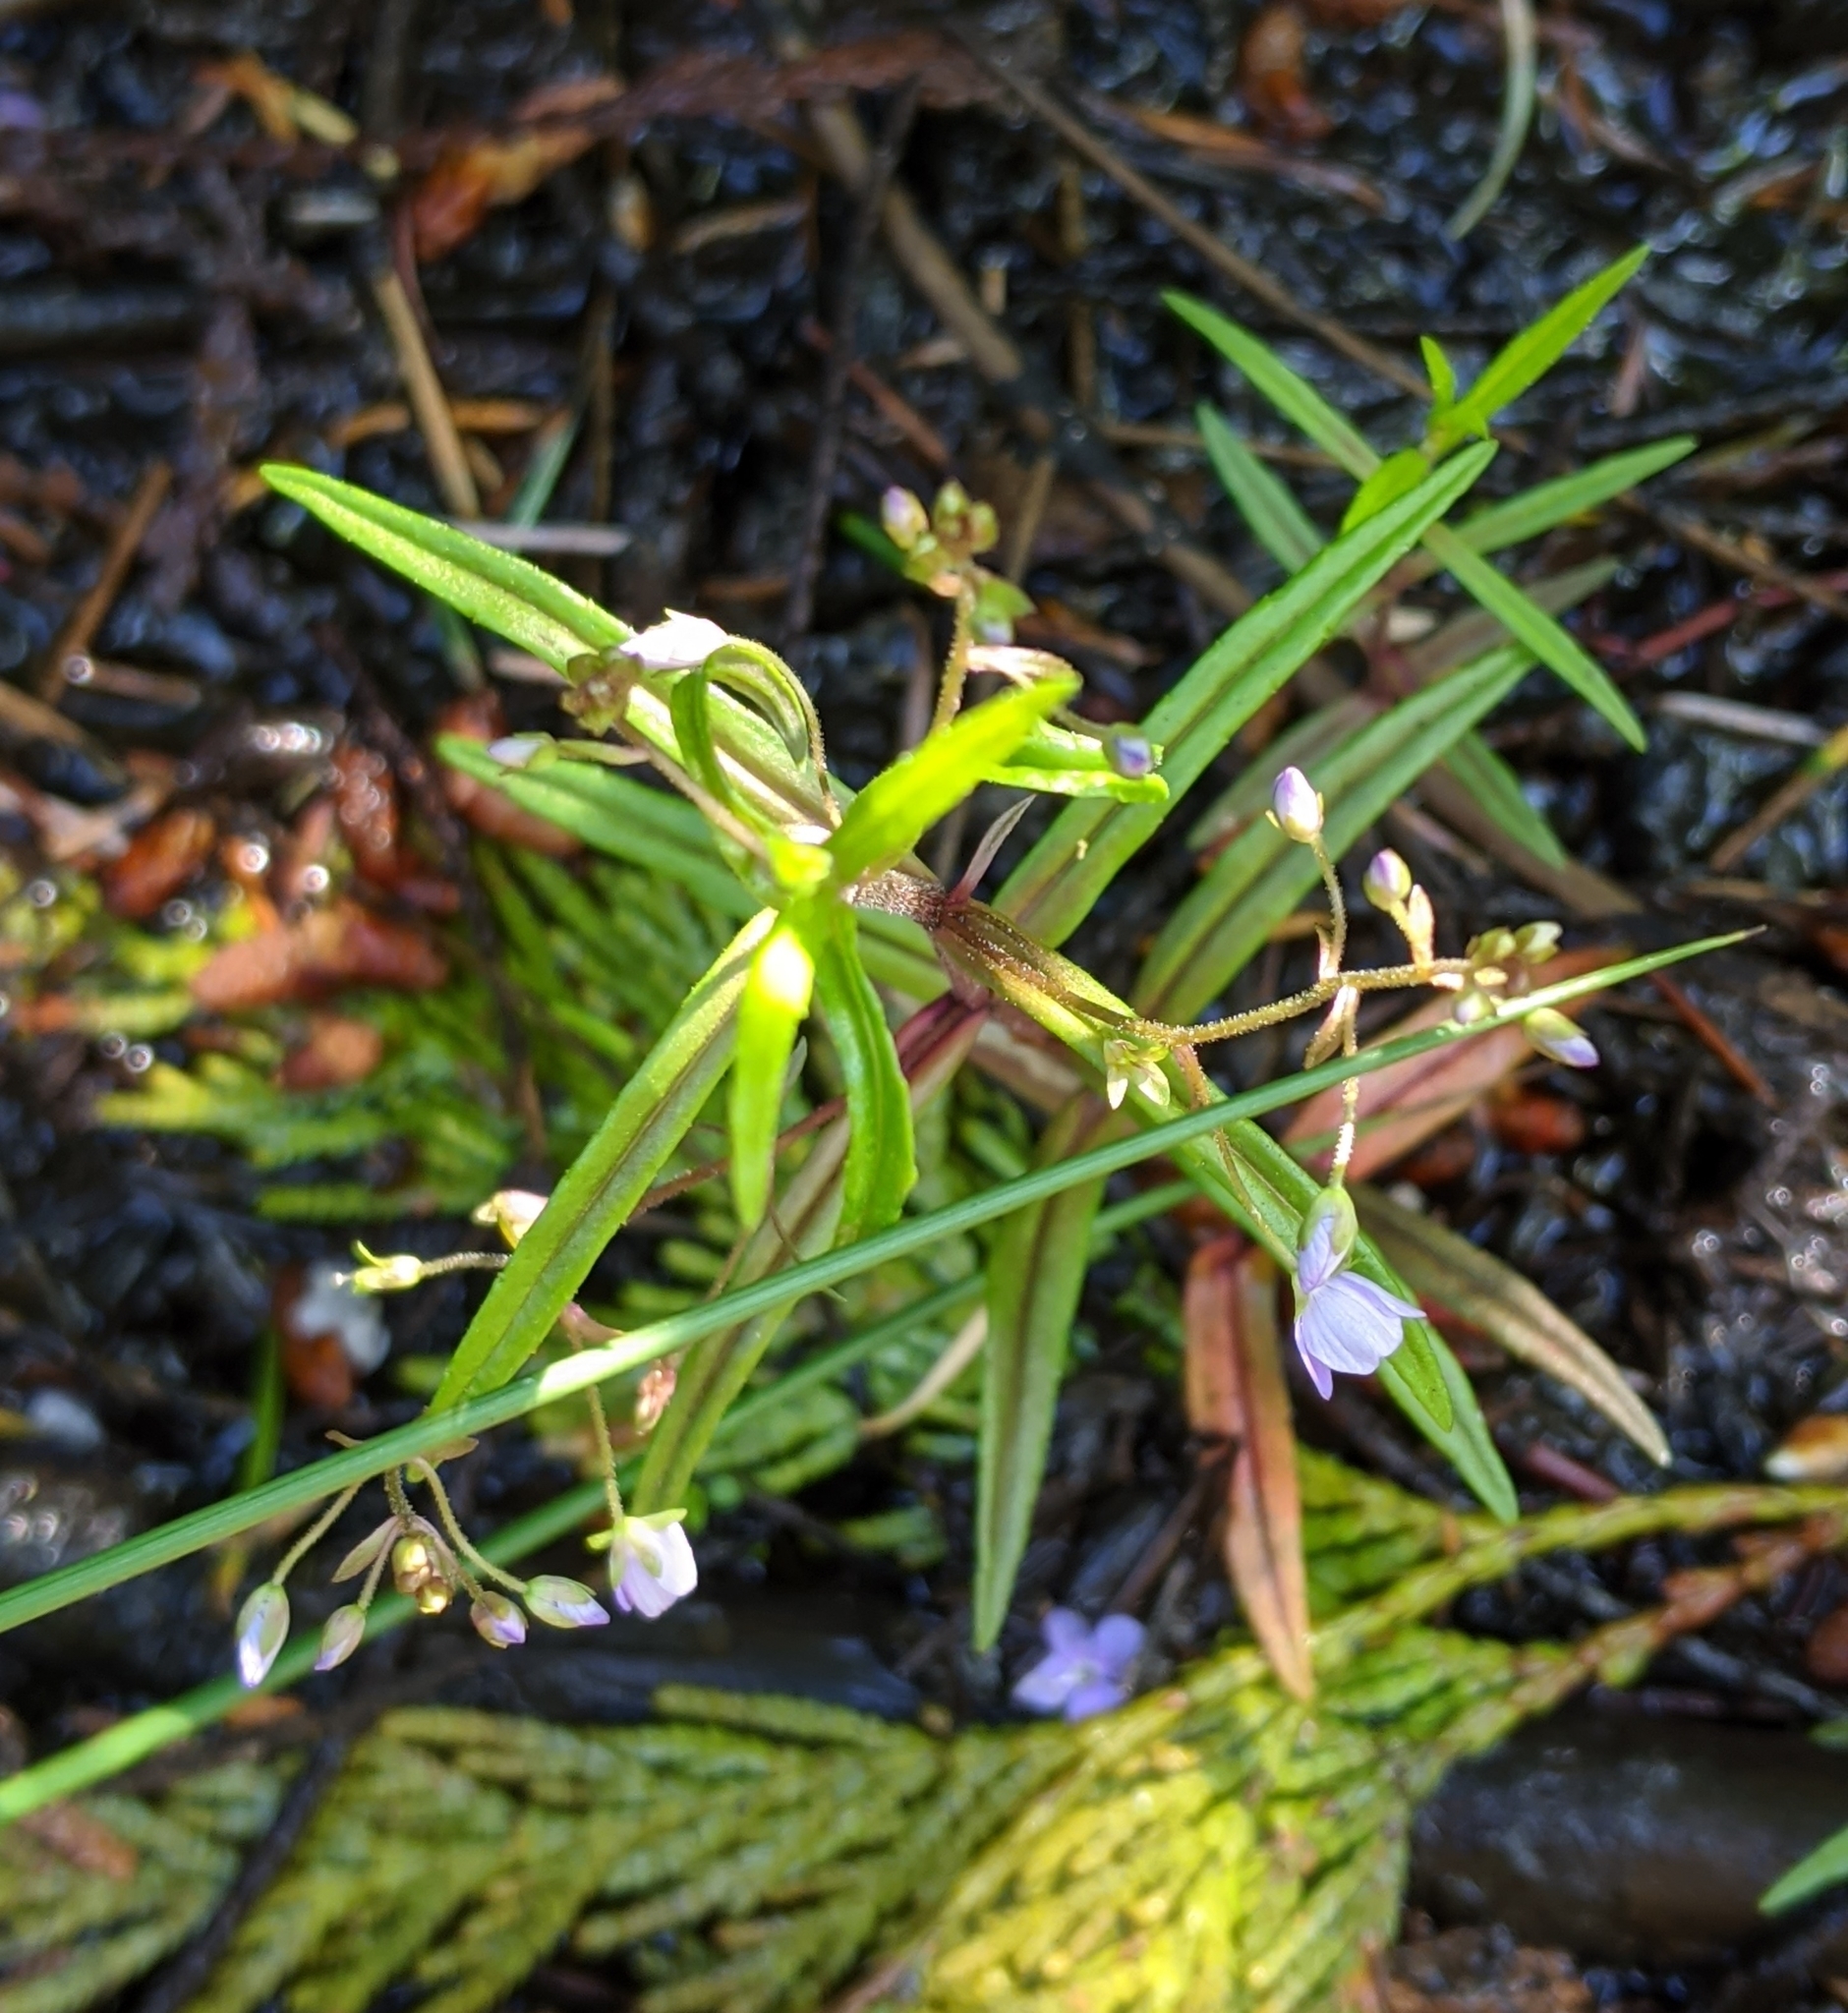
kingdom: Plantae
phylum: Tracheophyta
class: Magnoliopsida
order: Lamiales
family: Plantaginaceae
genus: Veronica
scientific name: Veronica scutellata
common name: Marsh speedwell
